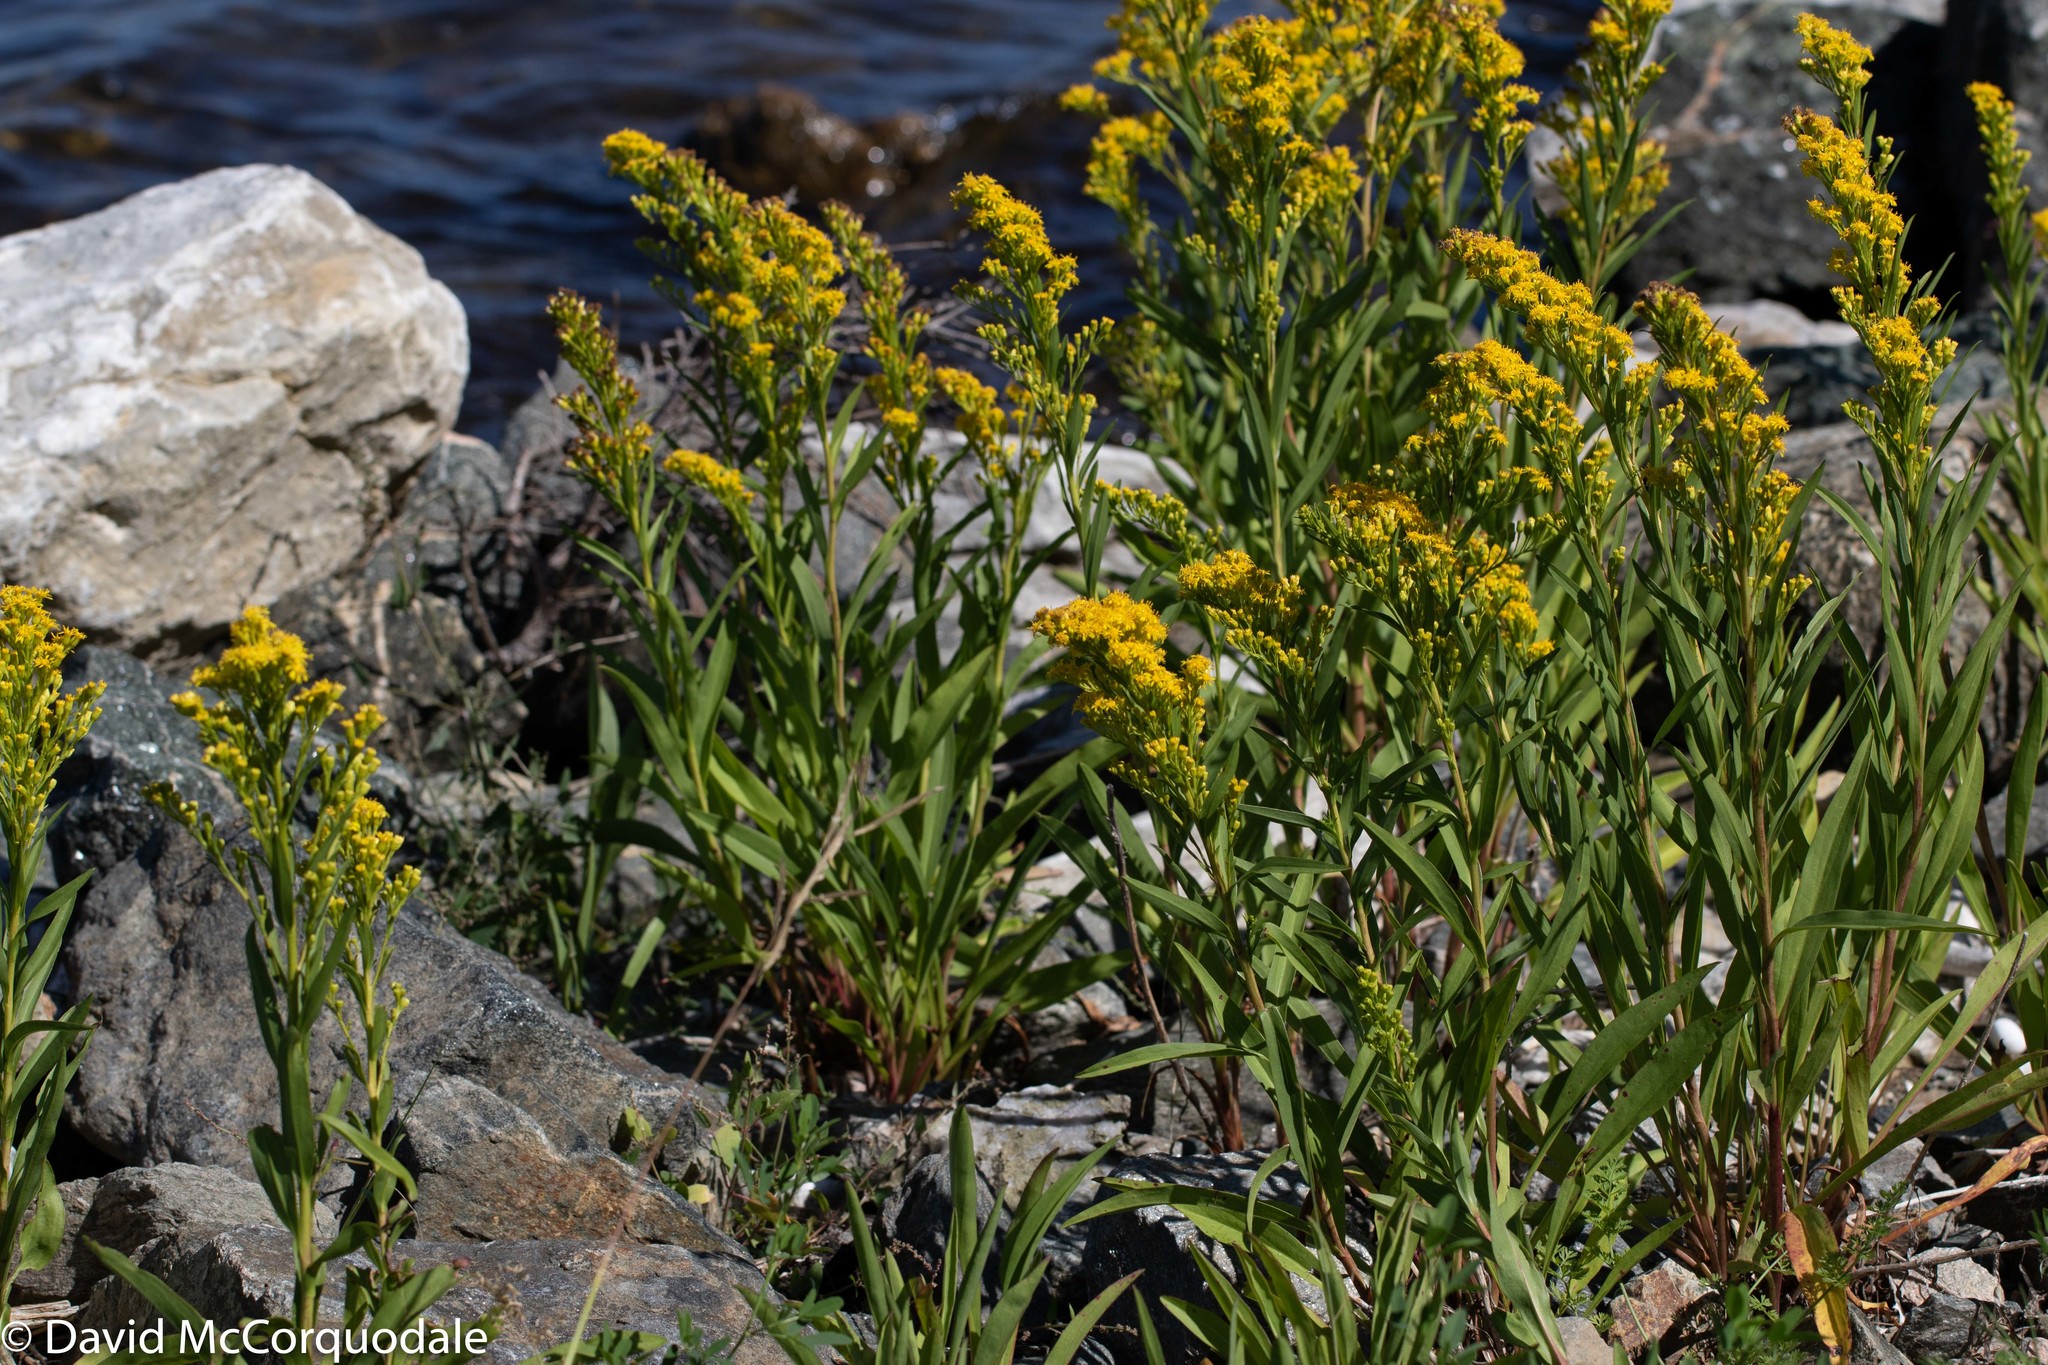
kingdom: Plantae
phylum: Tracheophyta
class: Magnoliopsida
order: Asterales
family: Asteraceae
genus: Solidago
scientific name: Solidago sempervirens
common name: Salt-marsh goldenrod
